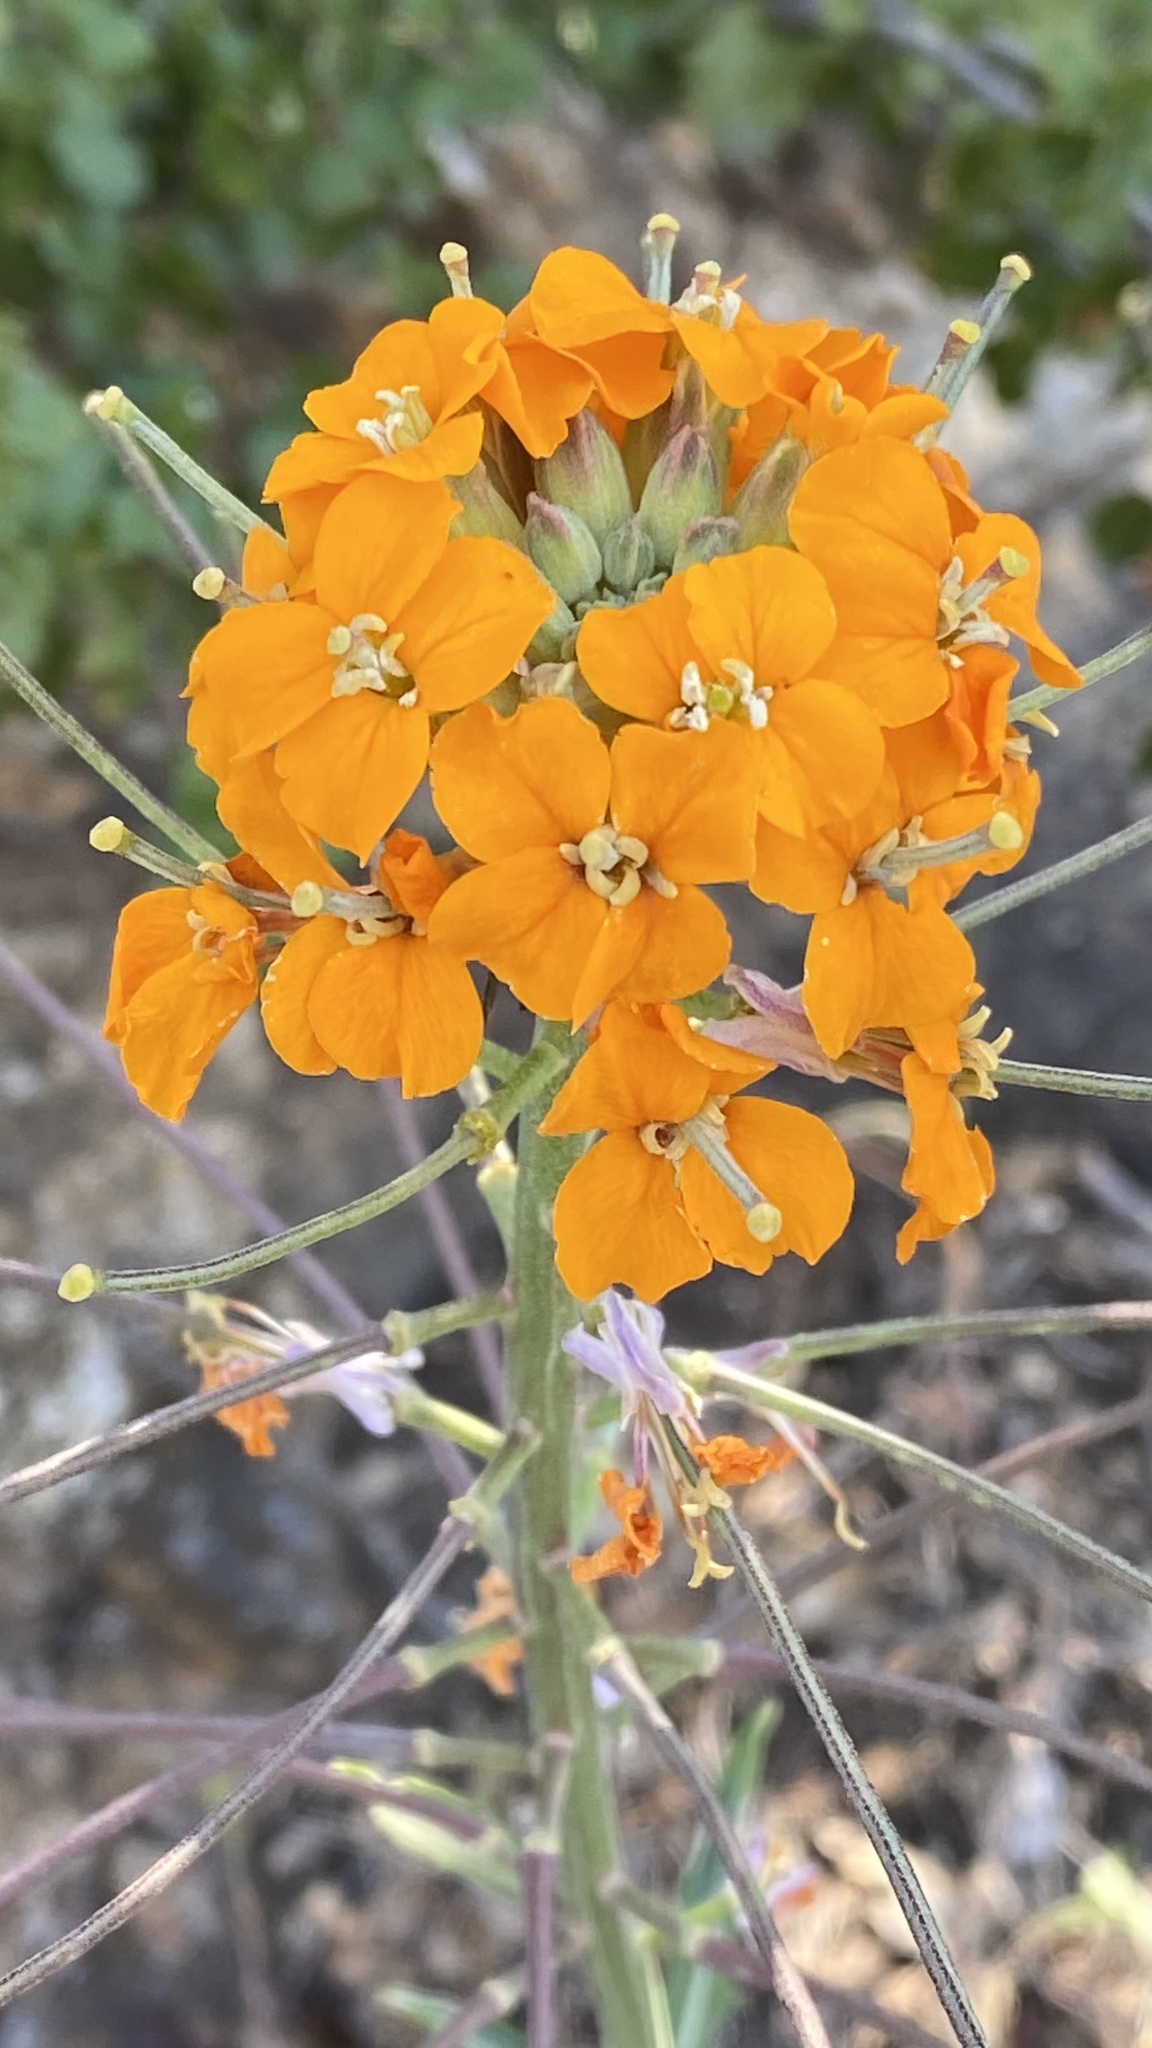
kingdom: Plantae
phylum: Tracheophyta
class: Magnoliopsida
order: Brassicales
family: Brassicaceae
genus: Erysimum
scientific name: Erysimum capitatum
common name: Western wallflower
